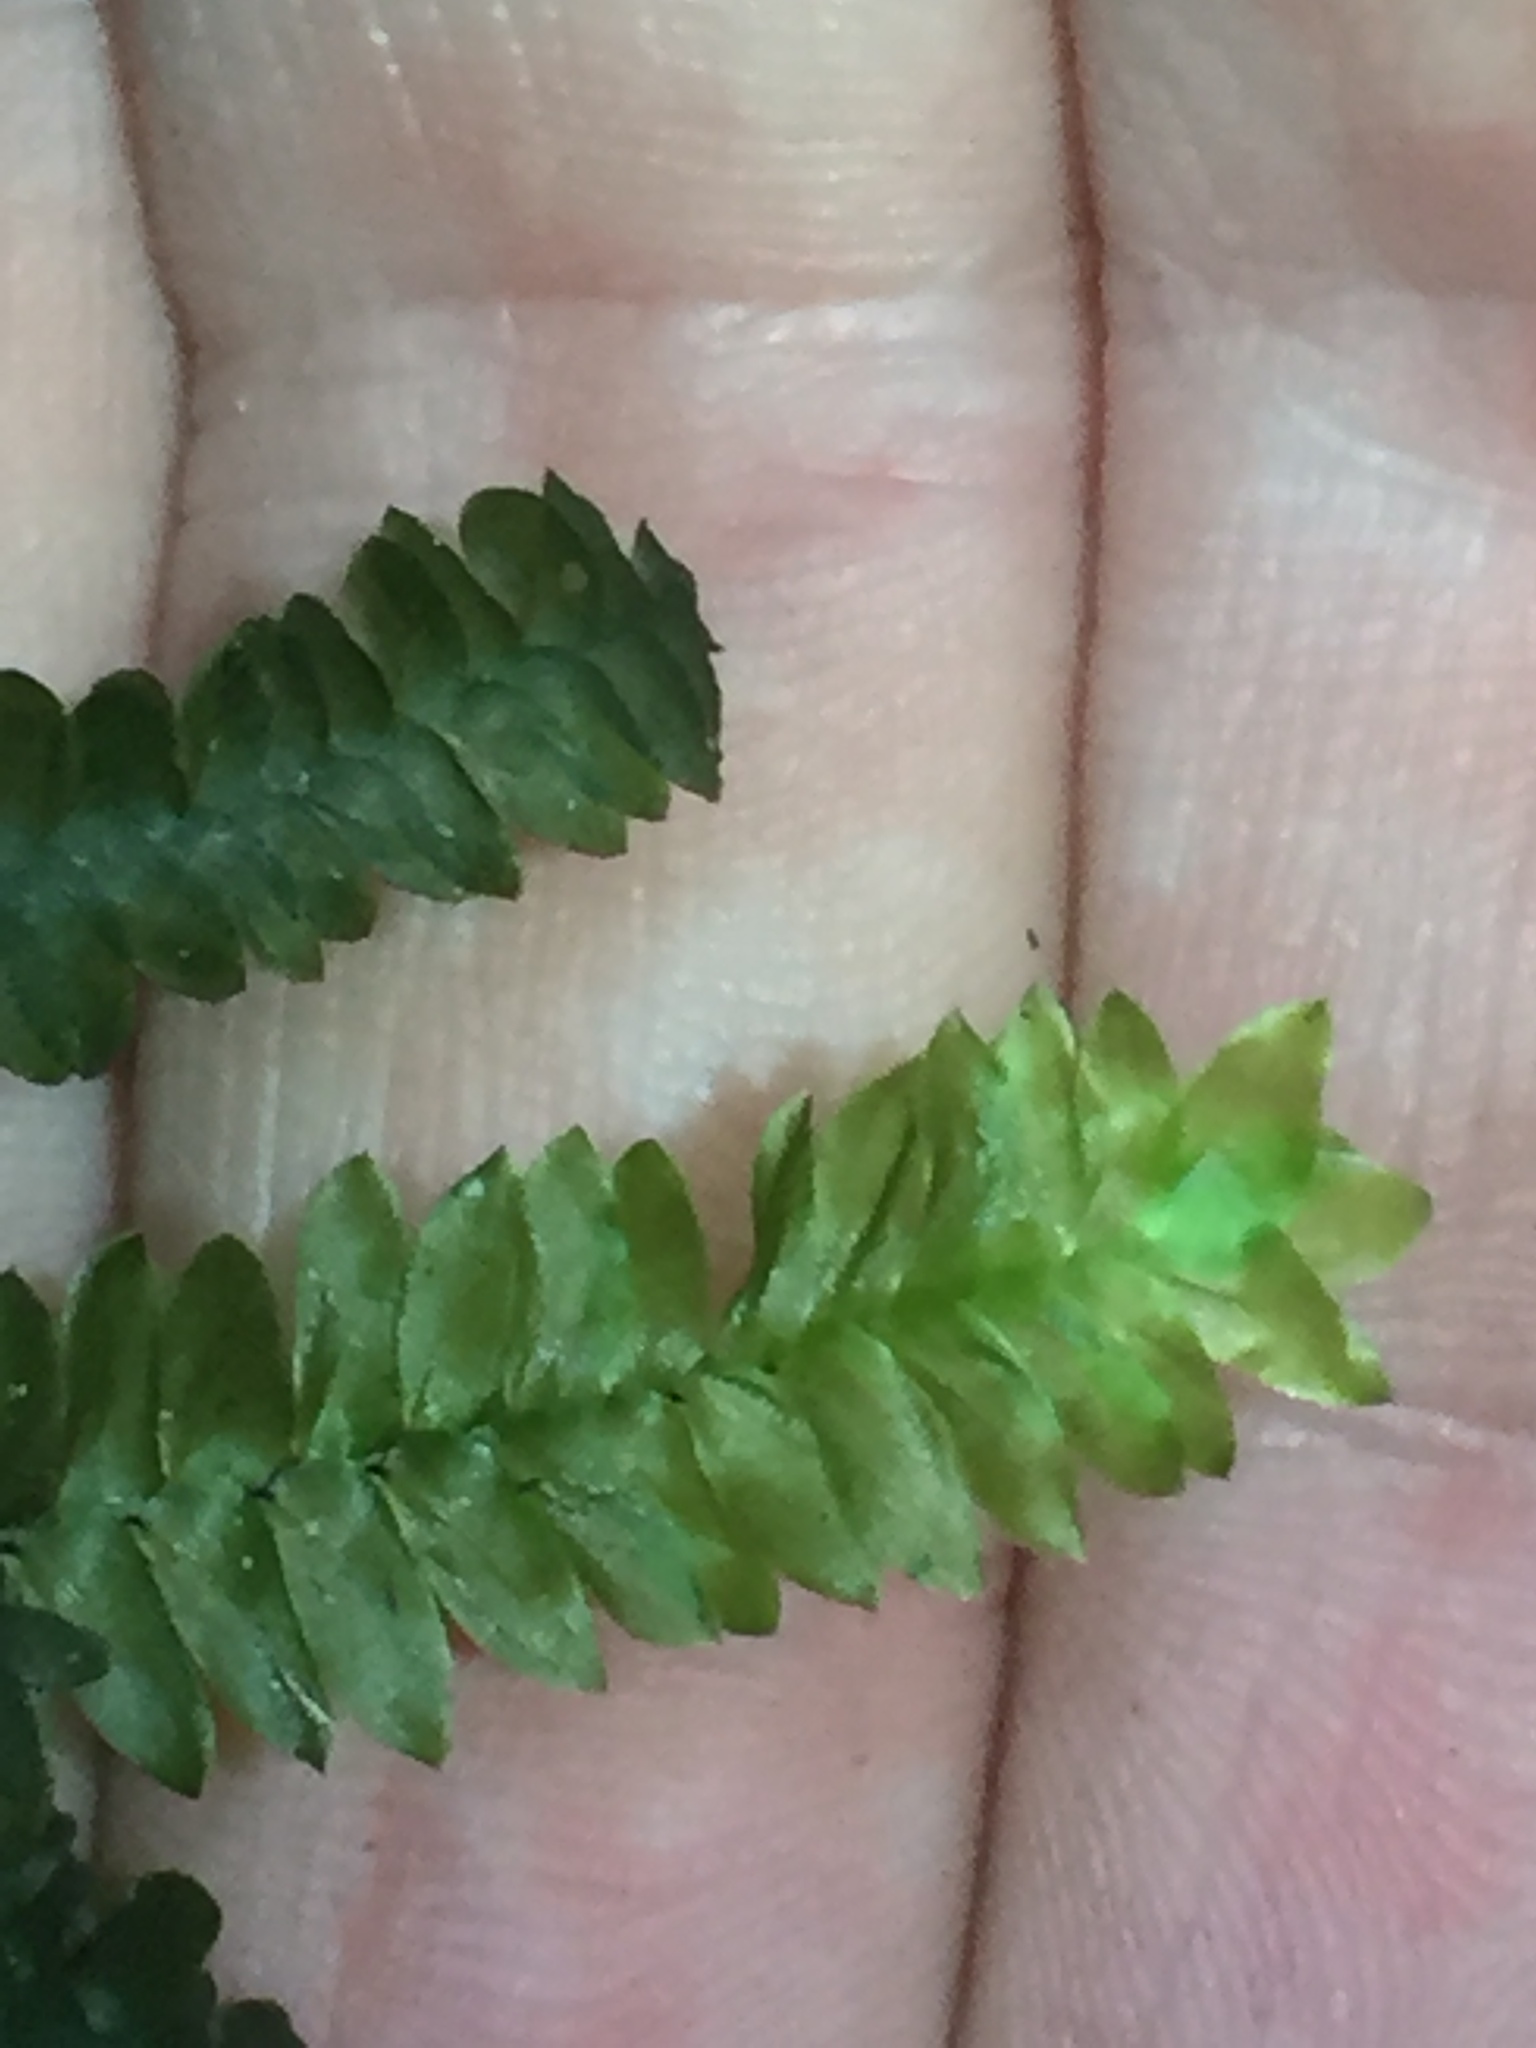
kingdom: Plantae
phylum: Bryophyta
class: Bryopsida
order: Hypopterygiales
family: Hypopterygiaceae
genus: Cyathophorum
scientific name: Cyathophorum bulbosum
